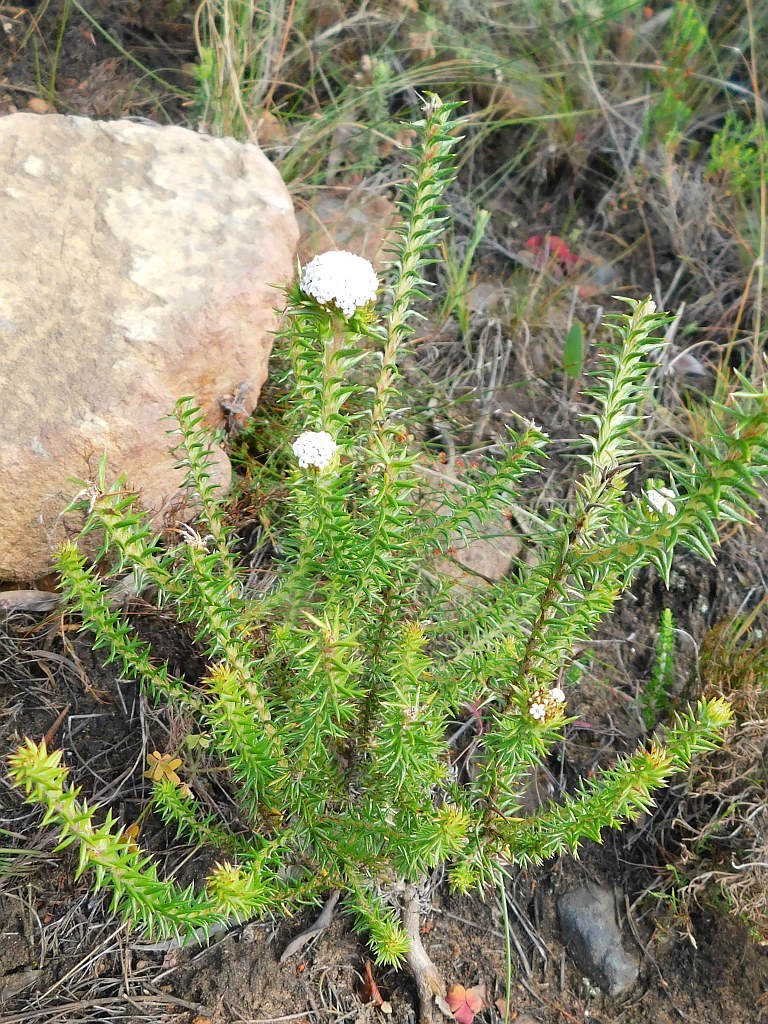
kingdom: Plantae
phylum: Tracheophyta
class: Magnoliopsida
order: Asterales
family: Asteraceae
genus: Stoebe
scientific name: Stoebe aethiopica
